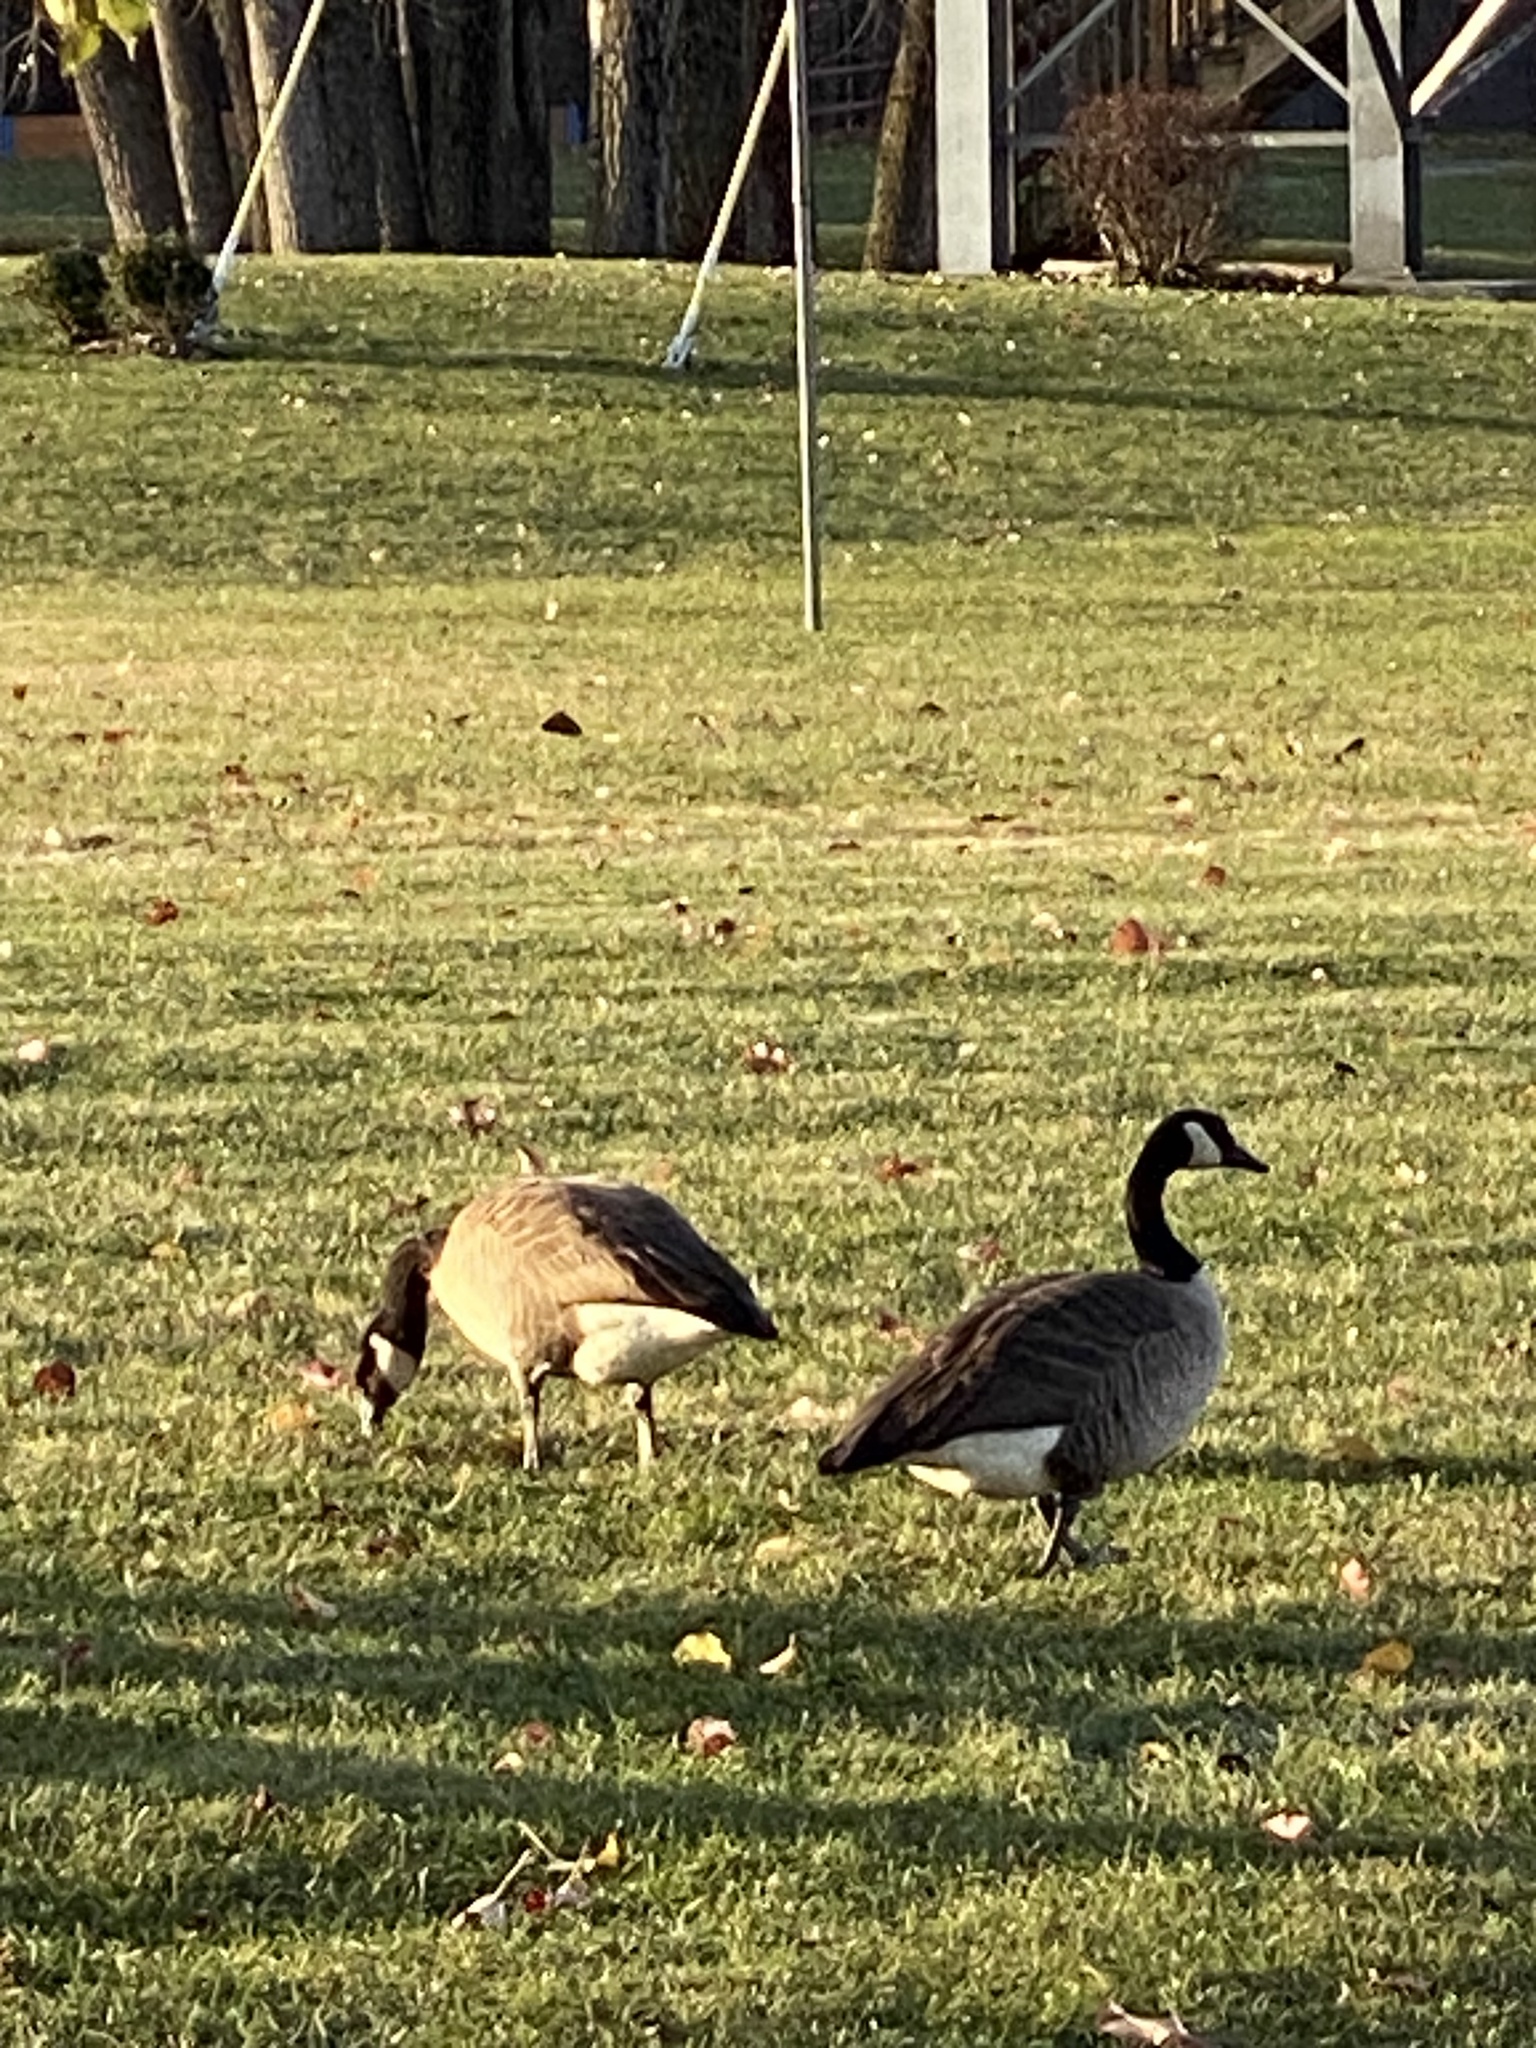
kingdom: Animalia
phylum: Chordata
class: Aves
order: Anseriformes
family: Anatidae
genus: Branta
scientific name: Branta canadensis
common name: Canada goose
